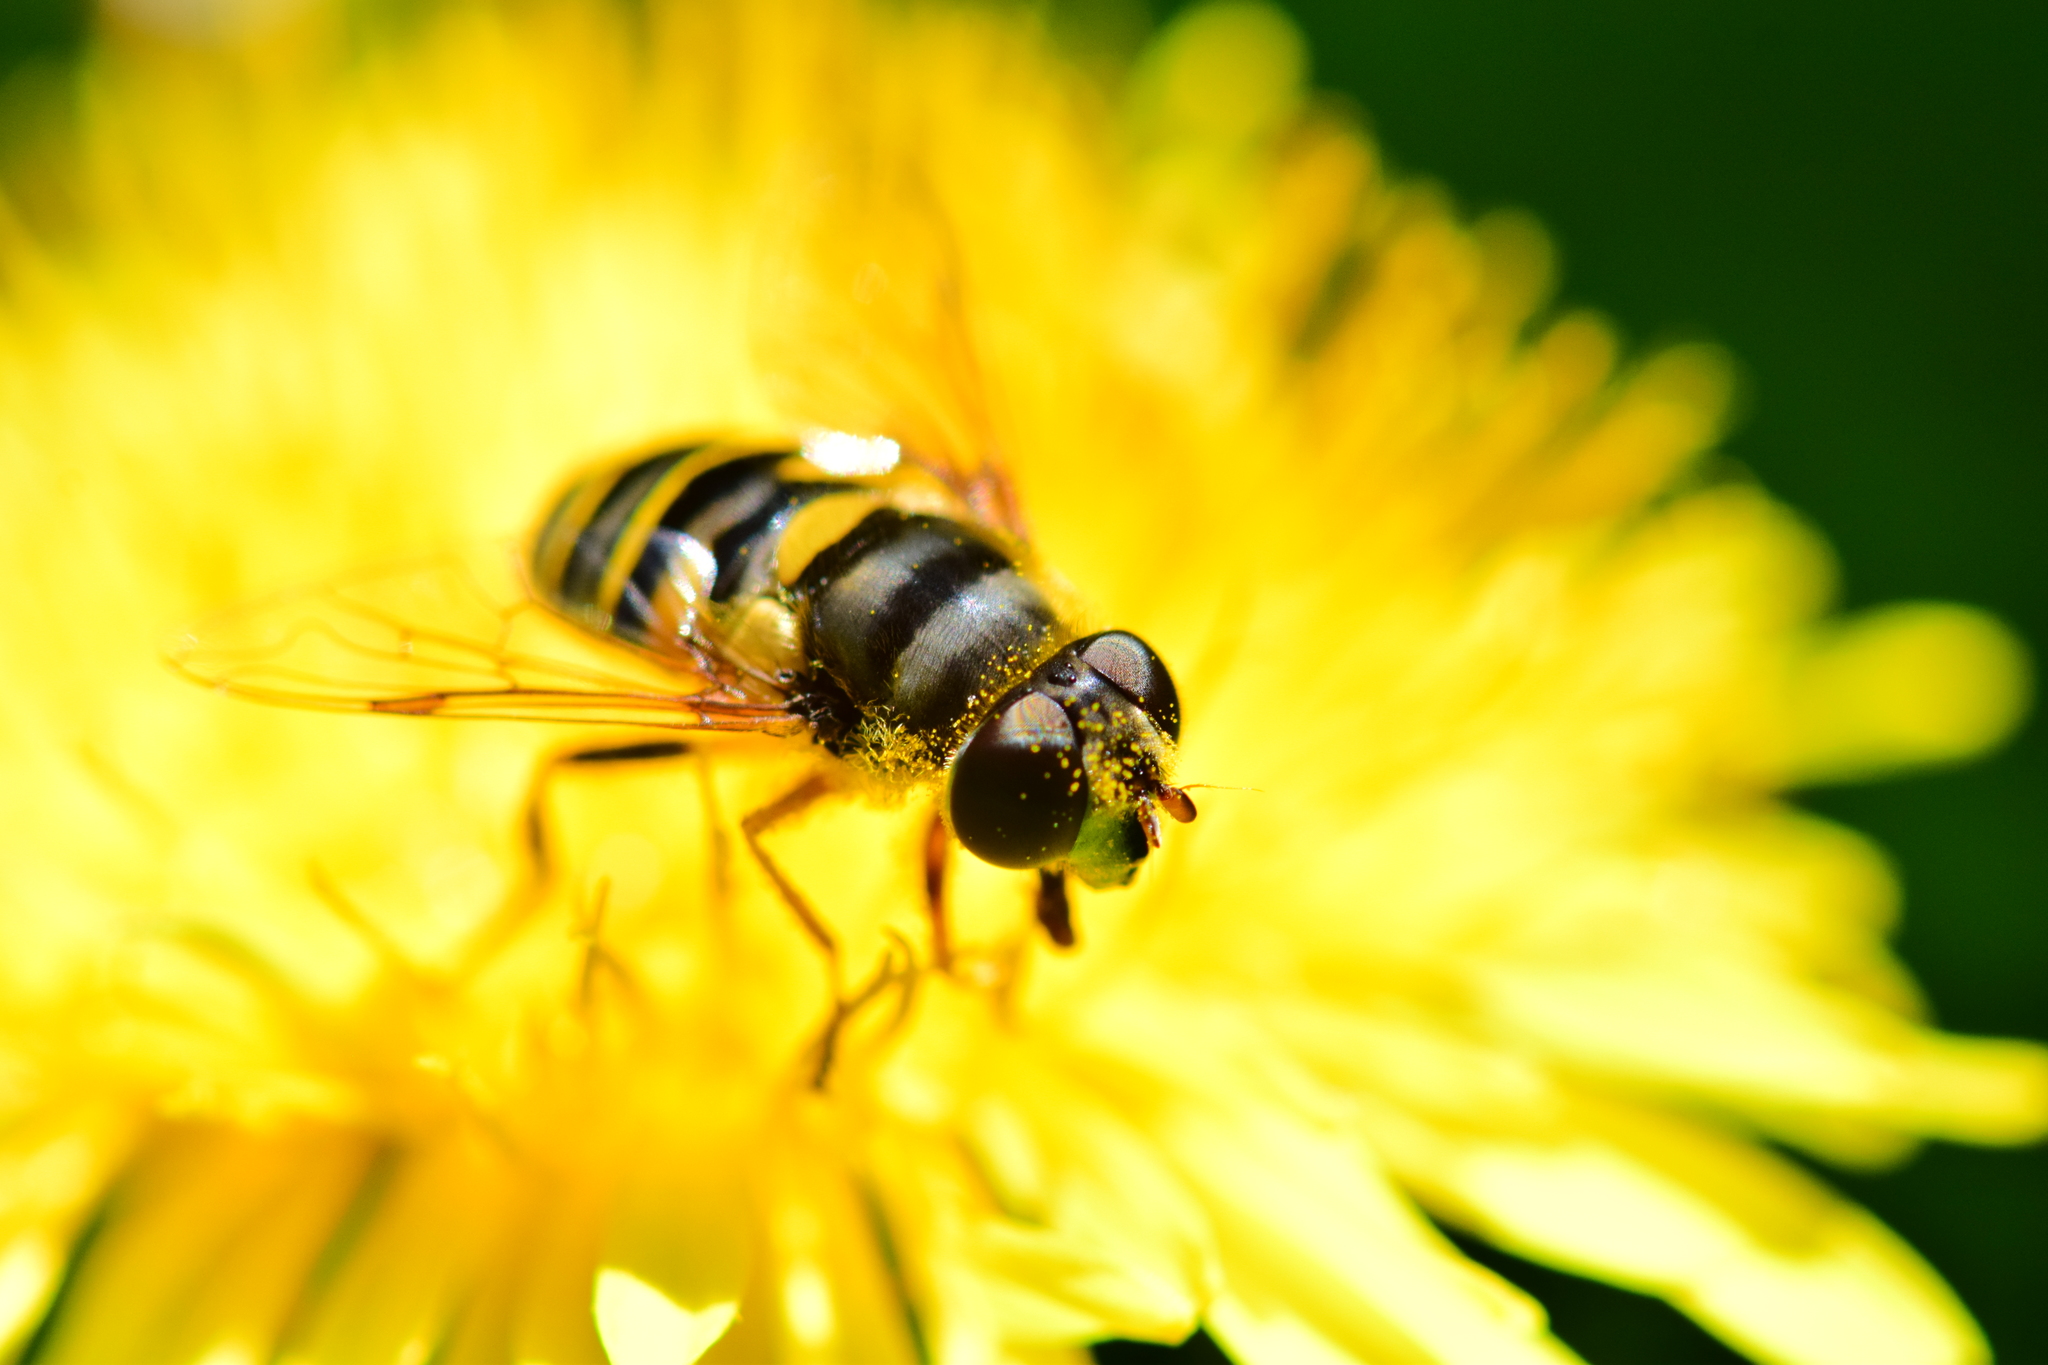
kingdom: Animalia
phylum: Arthropoda
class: Insecta
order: Diptera
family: Syrphidae
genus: Eristalis
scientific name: Eristalis transversa
